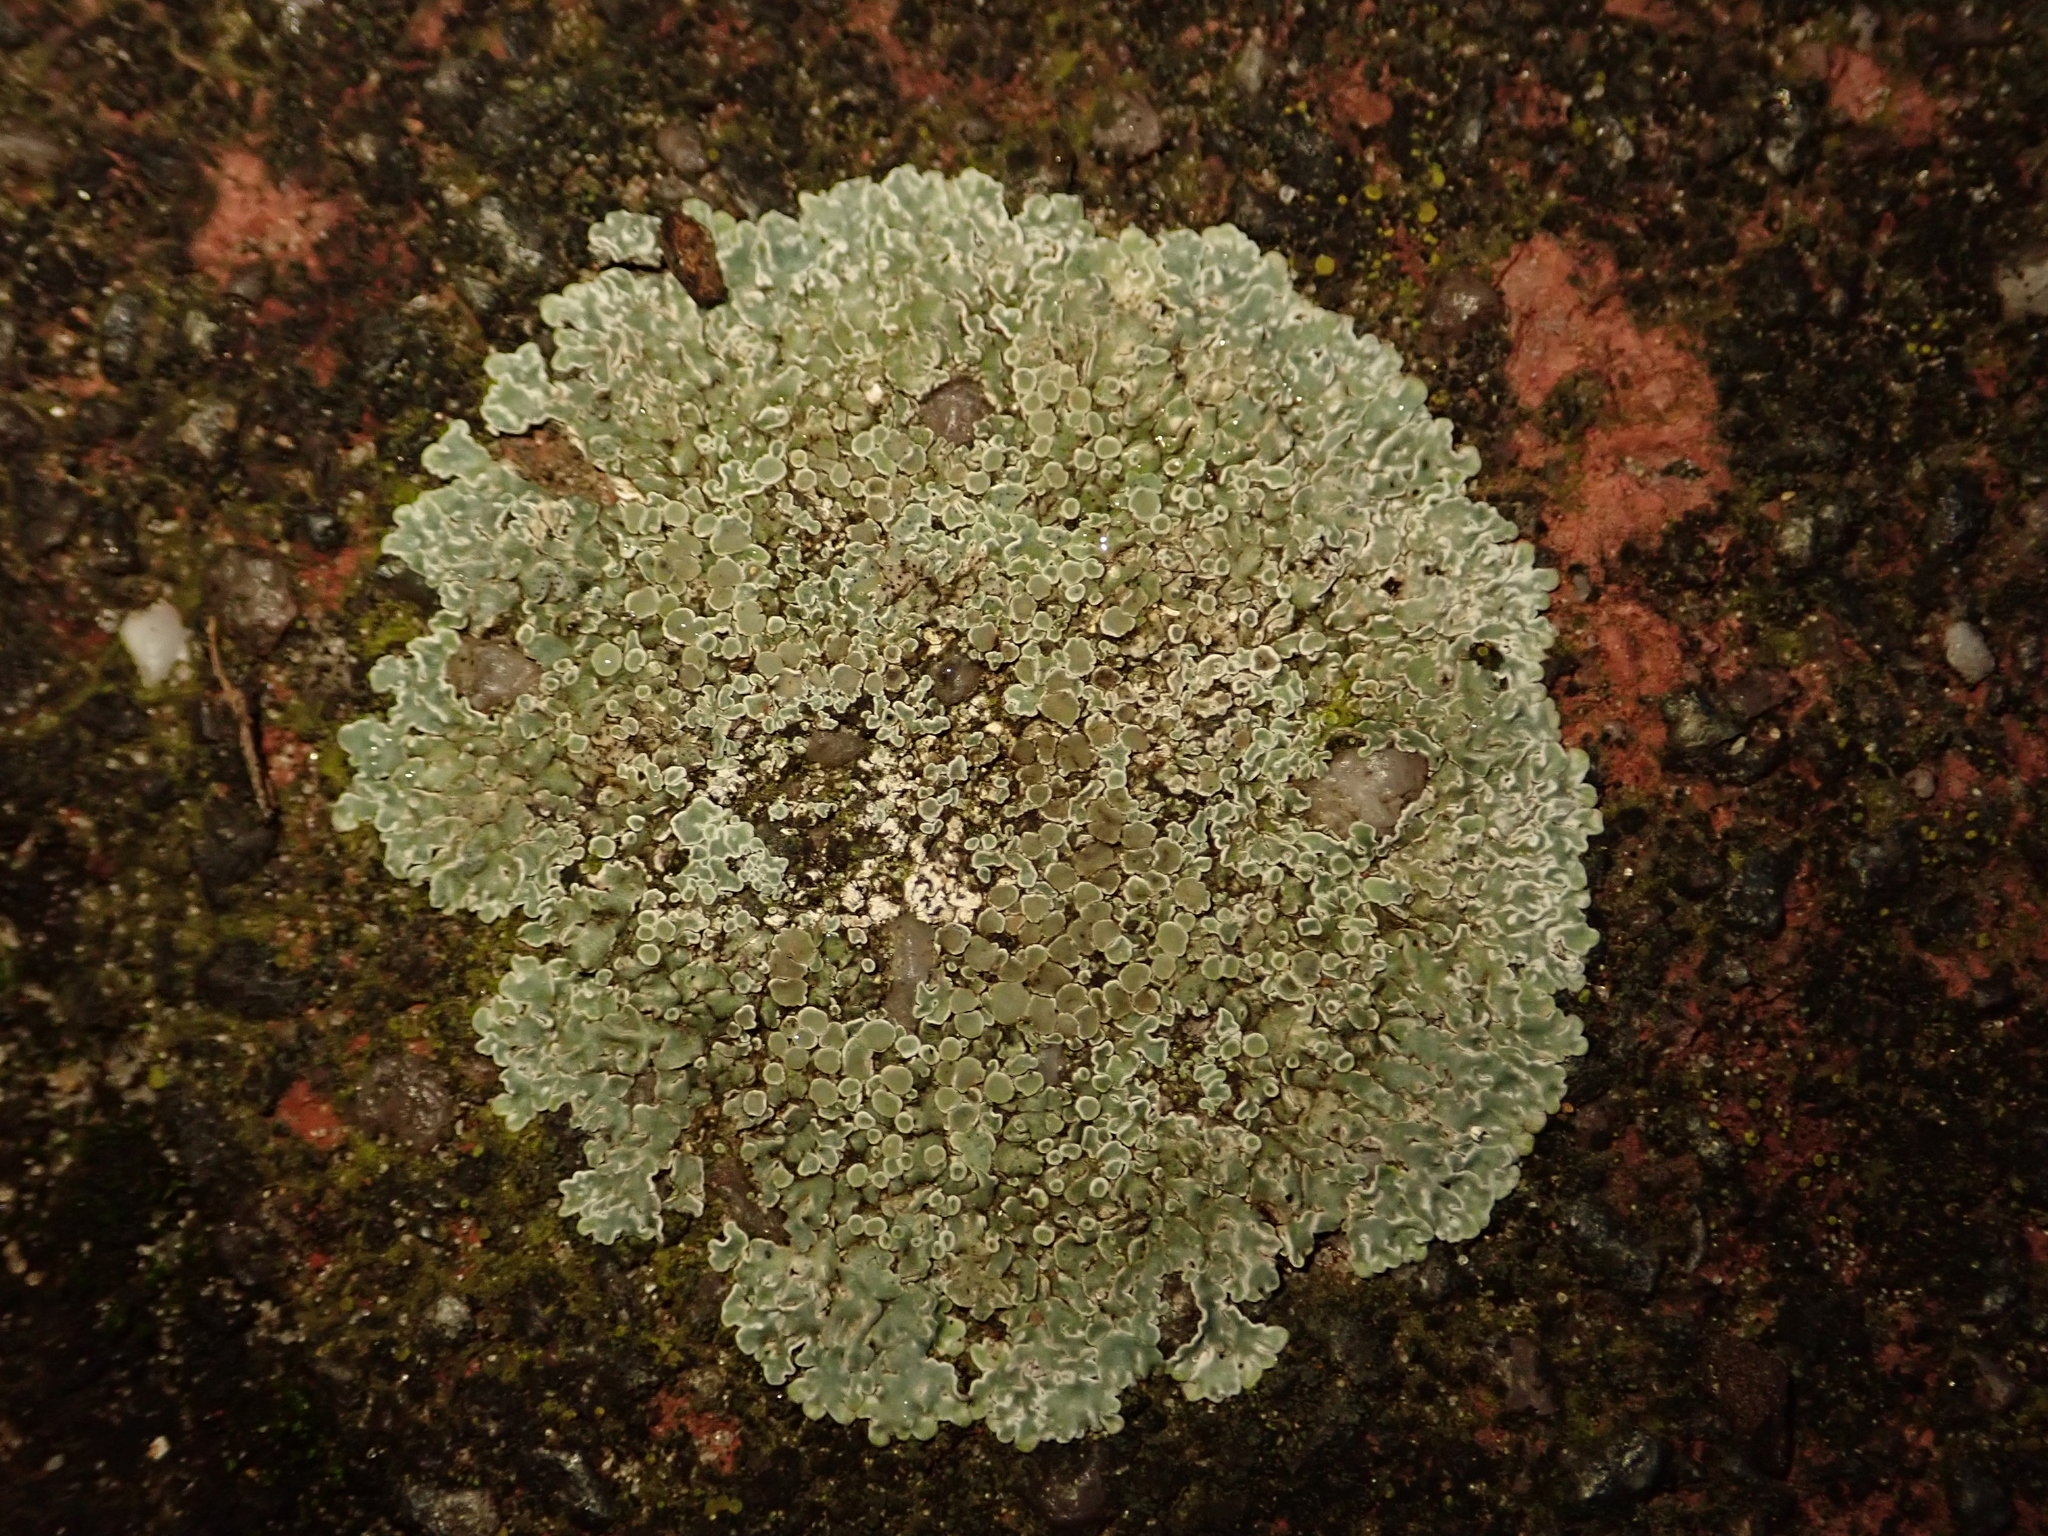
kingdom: Fungi
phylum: Ascomycota
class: Lecanoromycetes
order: Lecanorales
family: Lecanoraceae
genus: Protoparmeliopsis
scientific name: Protoparmeliopsis muralis
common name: Stonewall rim lichen
